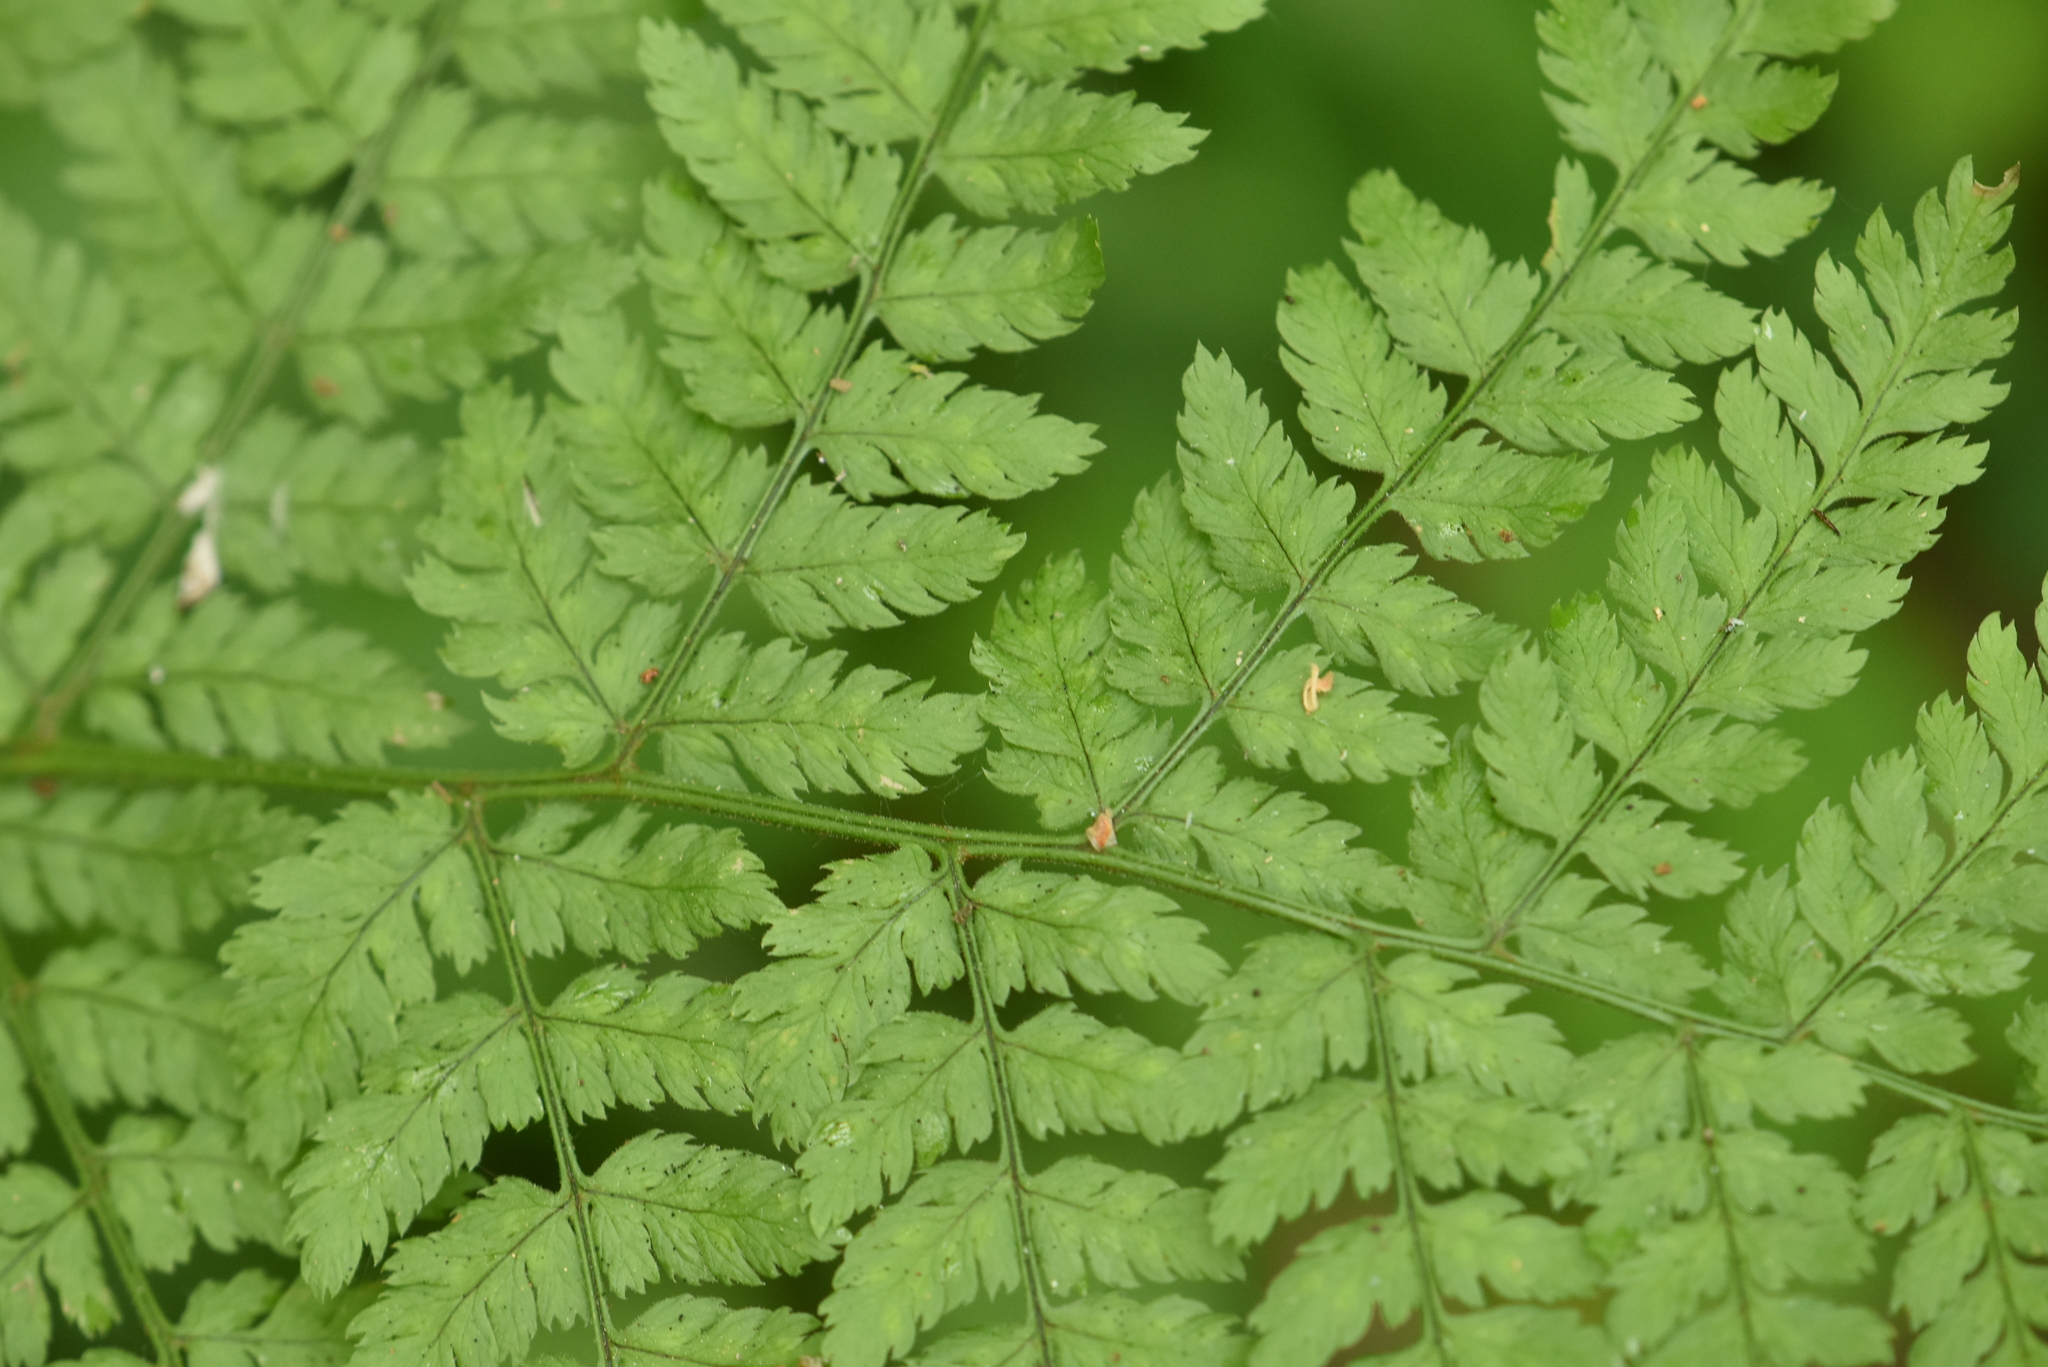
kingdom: Plantae
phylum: Tracheophyta
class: Polypodiopsida
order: Polypodiales
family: Dryopteridaceae
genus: Dryopteris
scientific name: Dryopteris expansa
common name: Northern buckler fern
